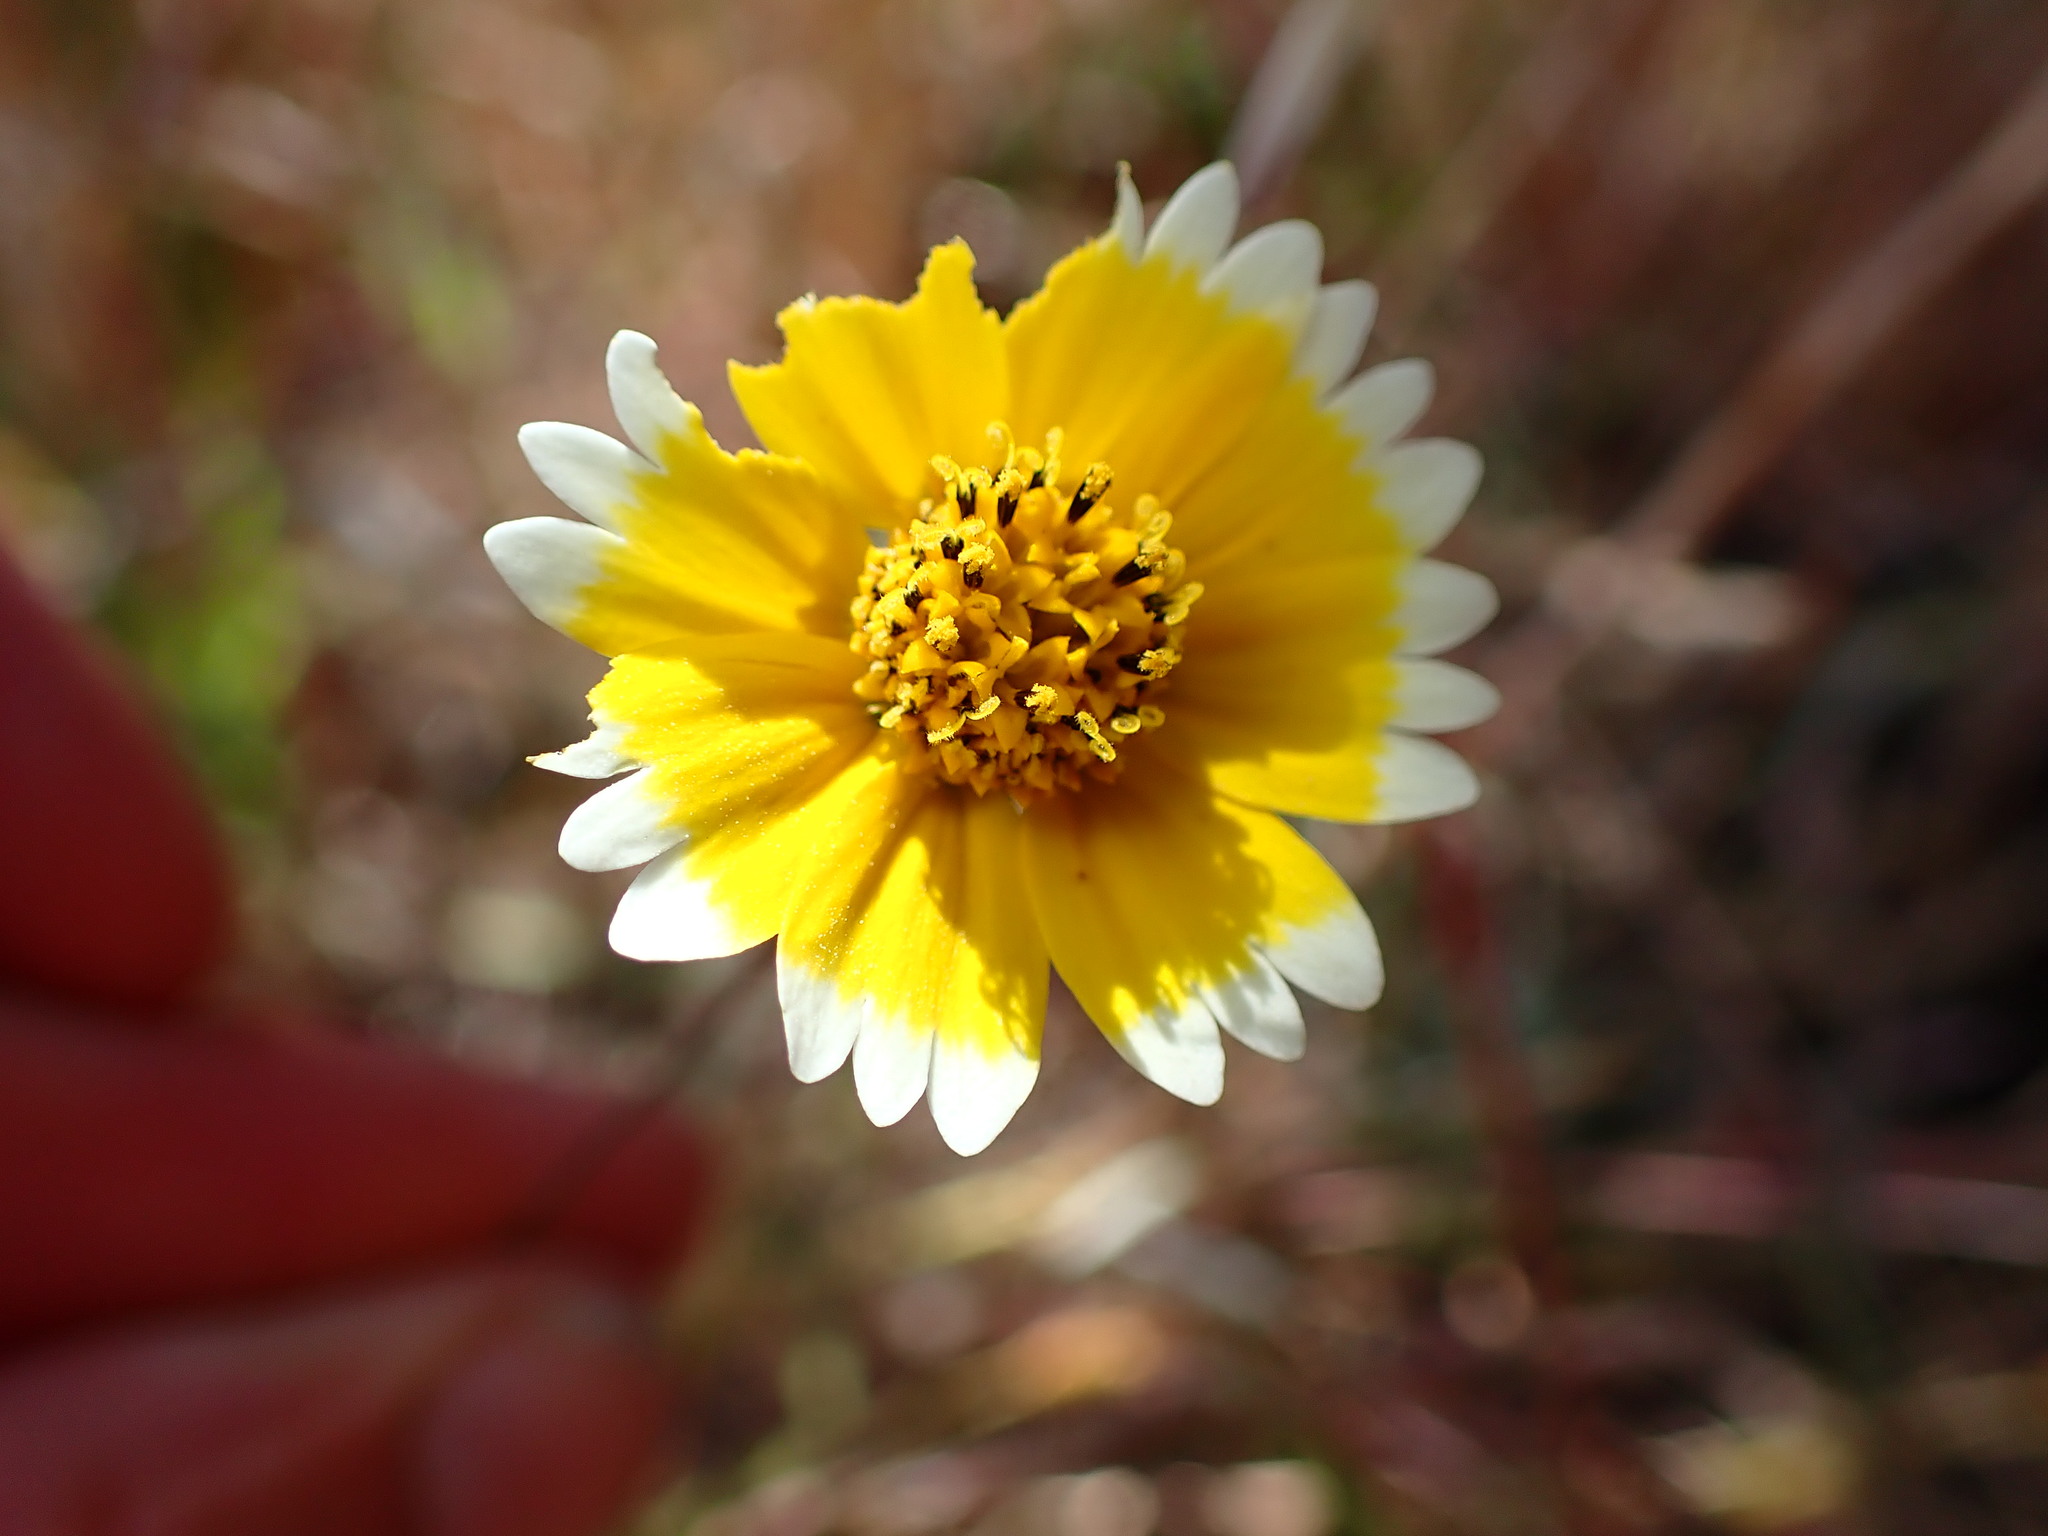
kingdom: Plantae
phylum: Tracheophyta
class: Magnoliopsida
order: Asterales
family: Asteraceae
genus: Layia
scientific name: Layia platyglossa
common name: Tidy-tips
